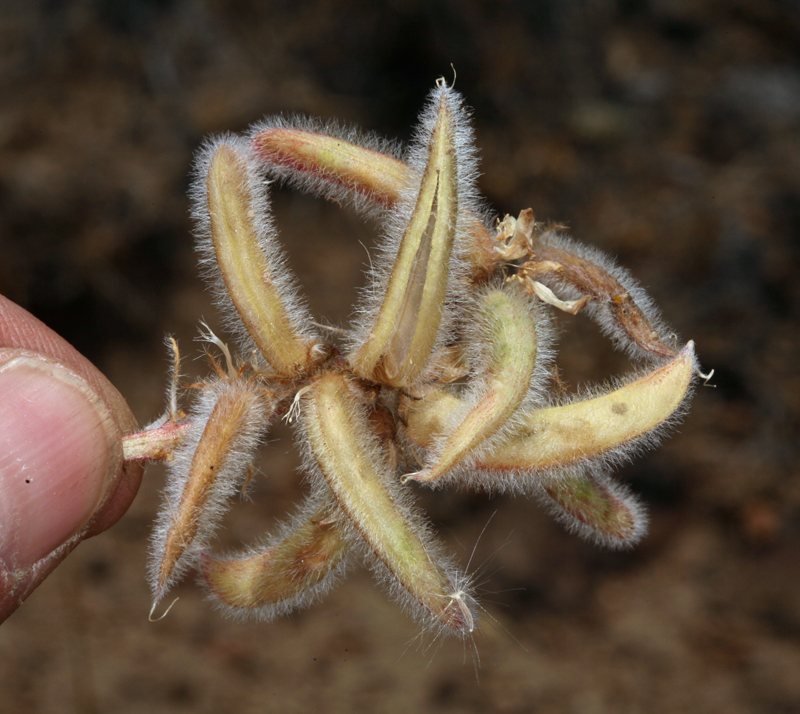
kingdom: Plantae
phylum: Tracheophyta
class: Magnoliopsida
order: Fabales
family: Fabaceae
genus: Astragalus
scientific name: Astragalus malacus
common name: Shaggy milk-vetch
